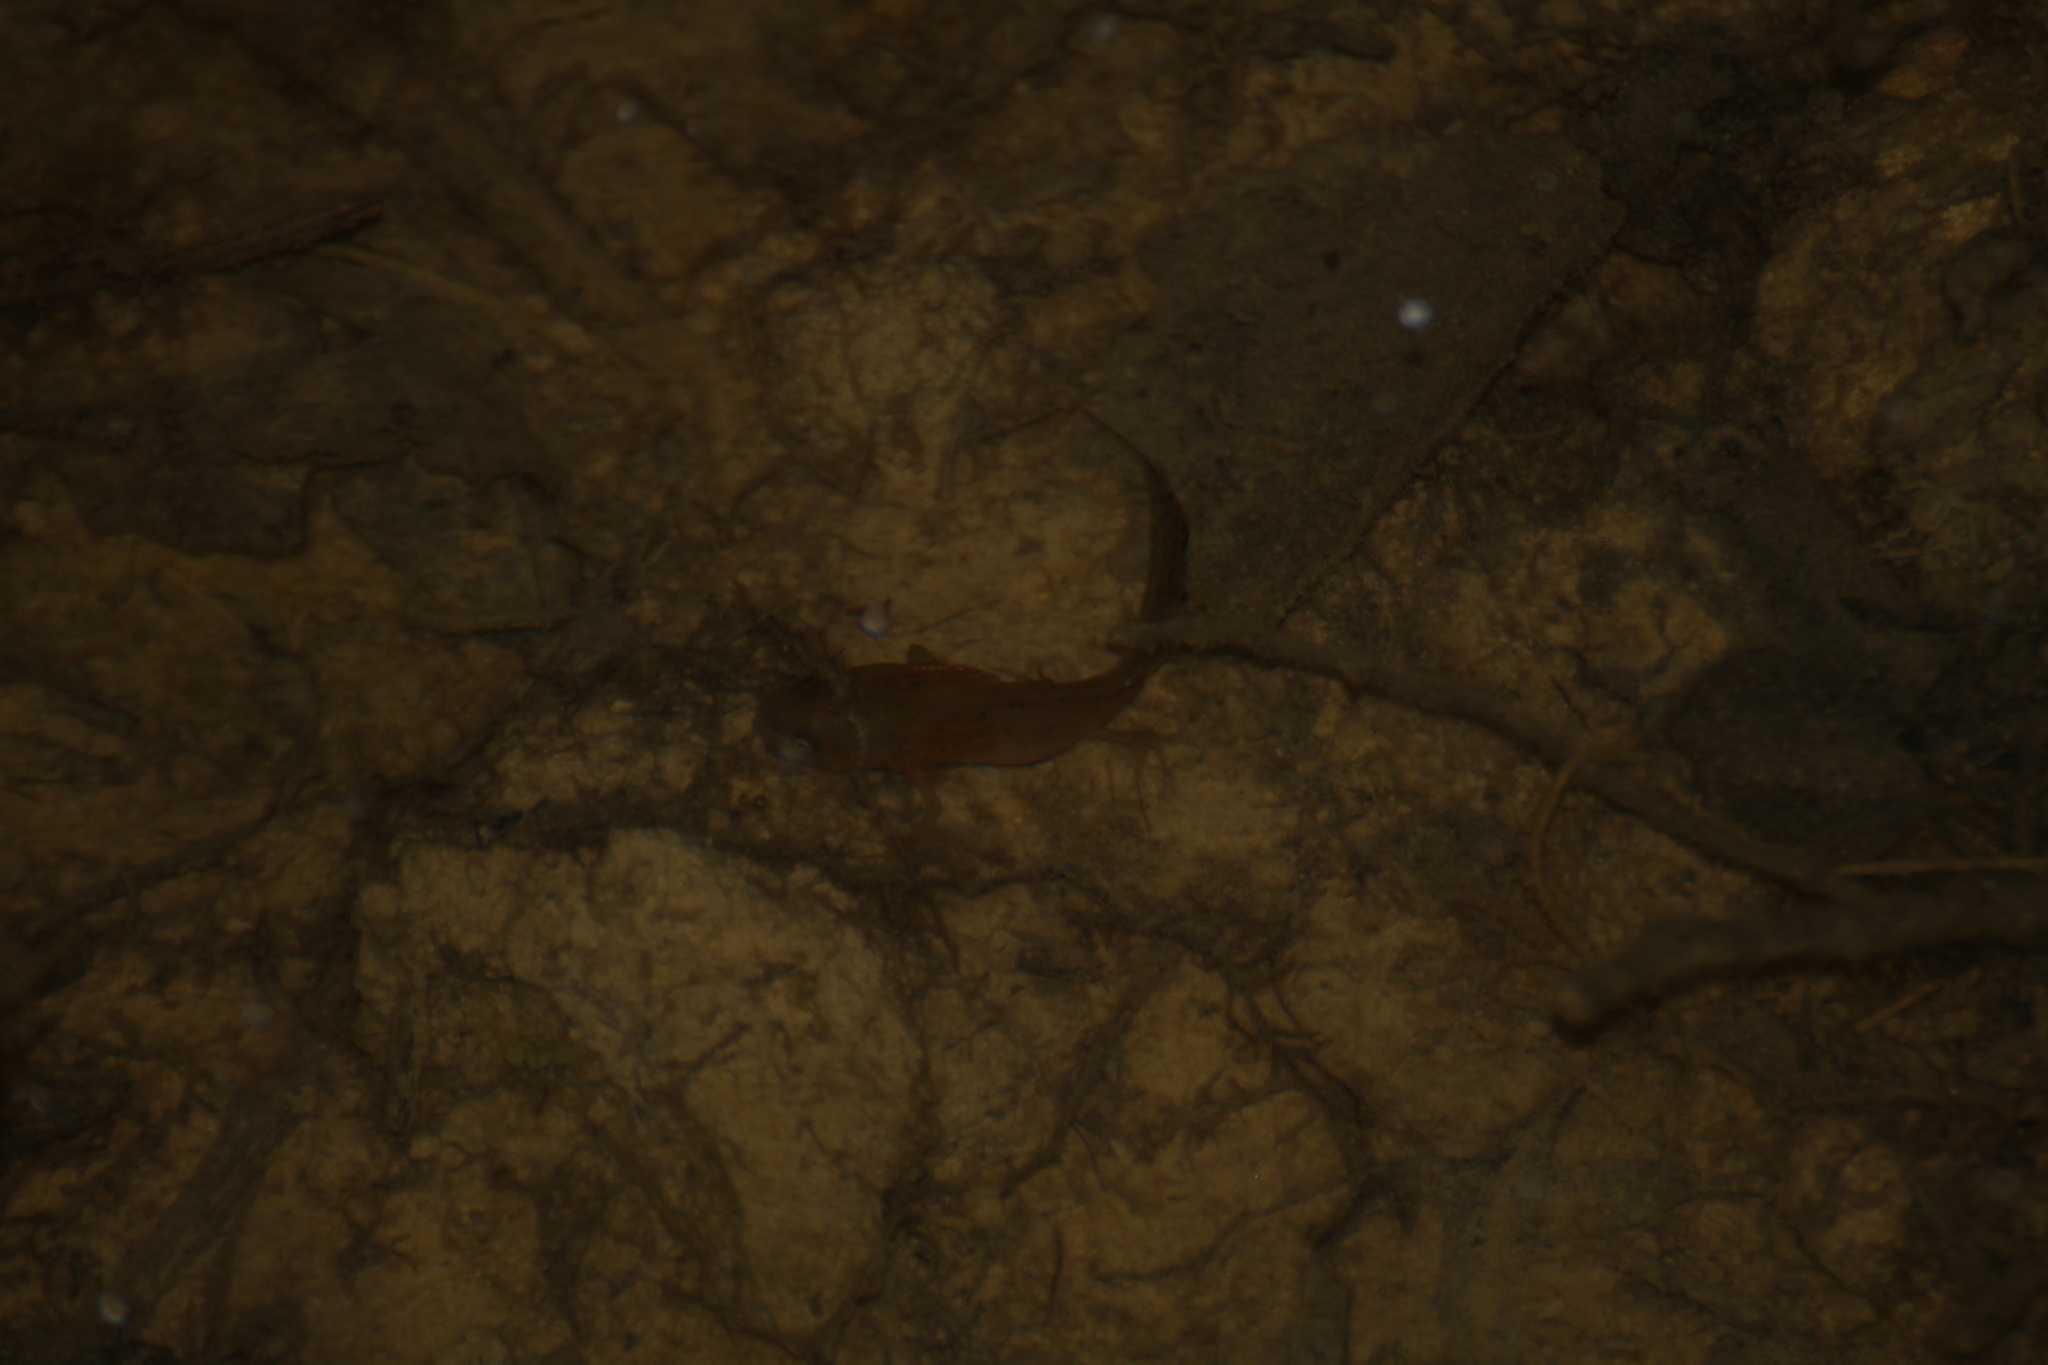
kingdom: Animalia
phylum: Chordata
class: Amphibia
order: Caudata
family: Salamandridae
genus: Triturus
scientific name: Triturus cristatus
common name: Crested newt
